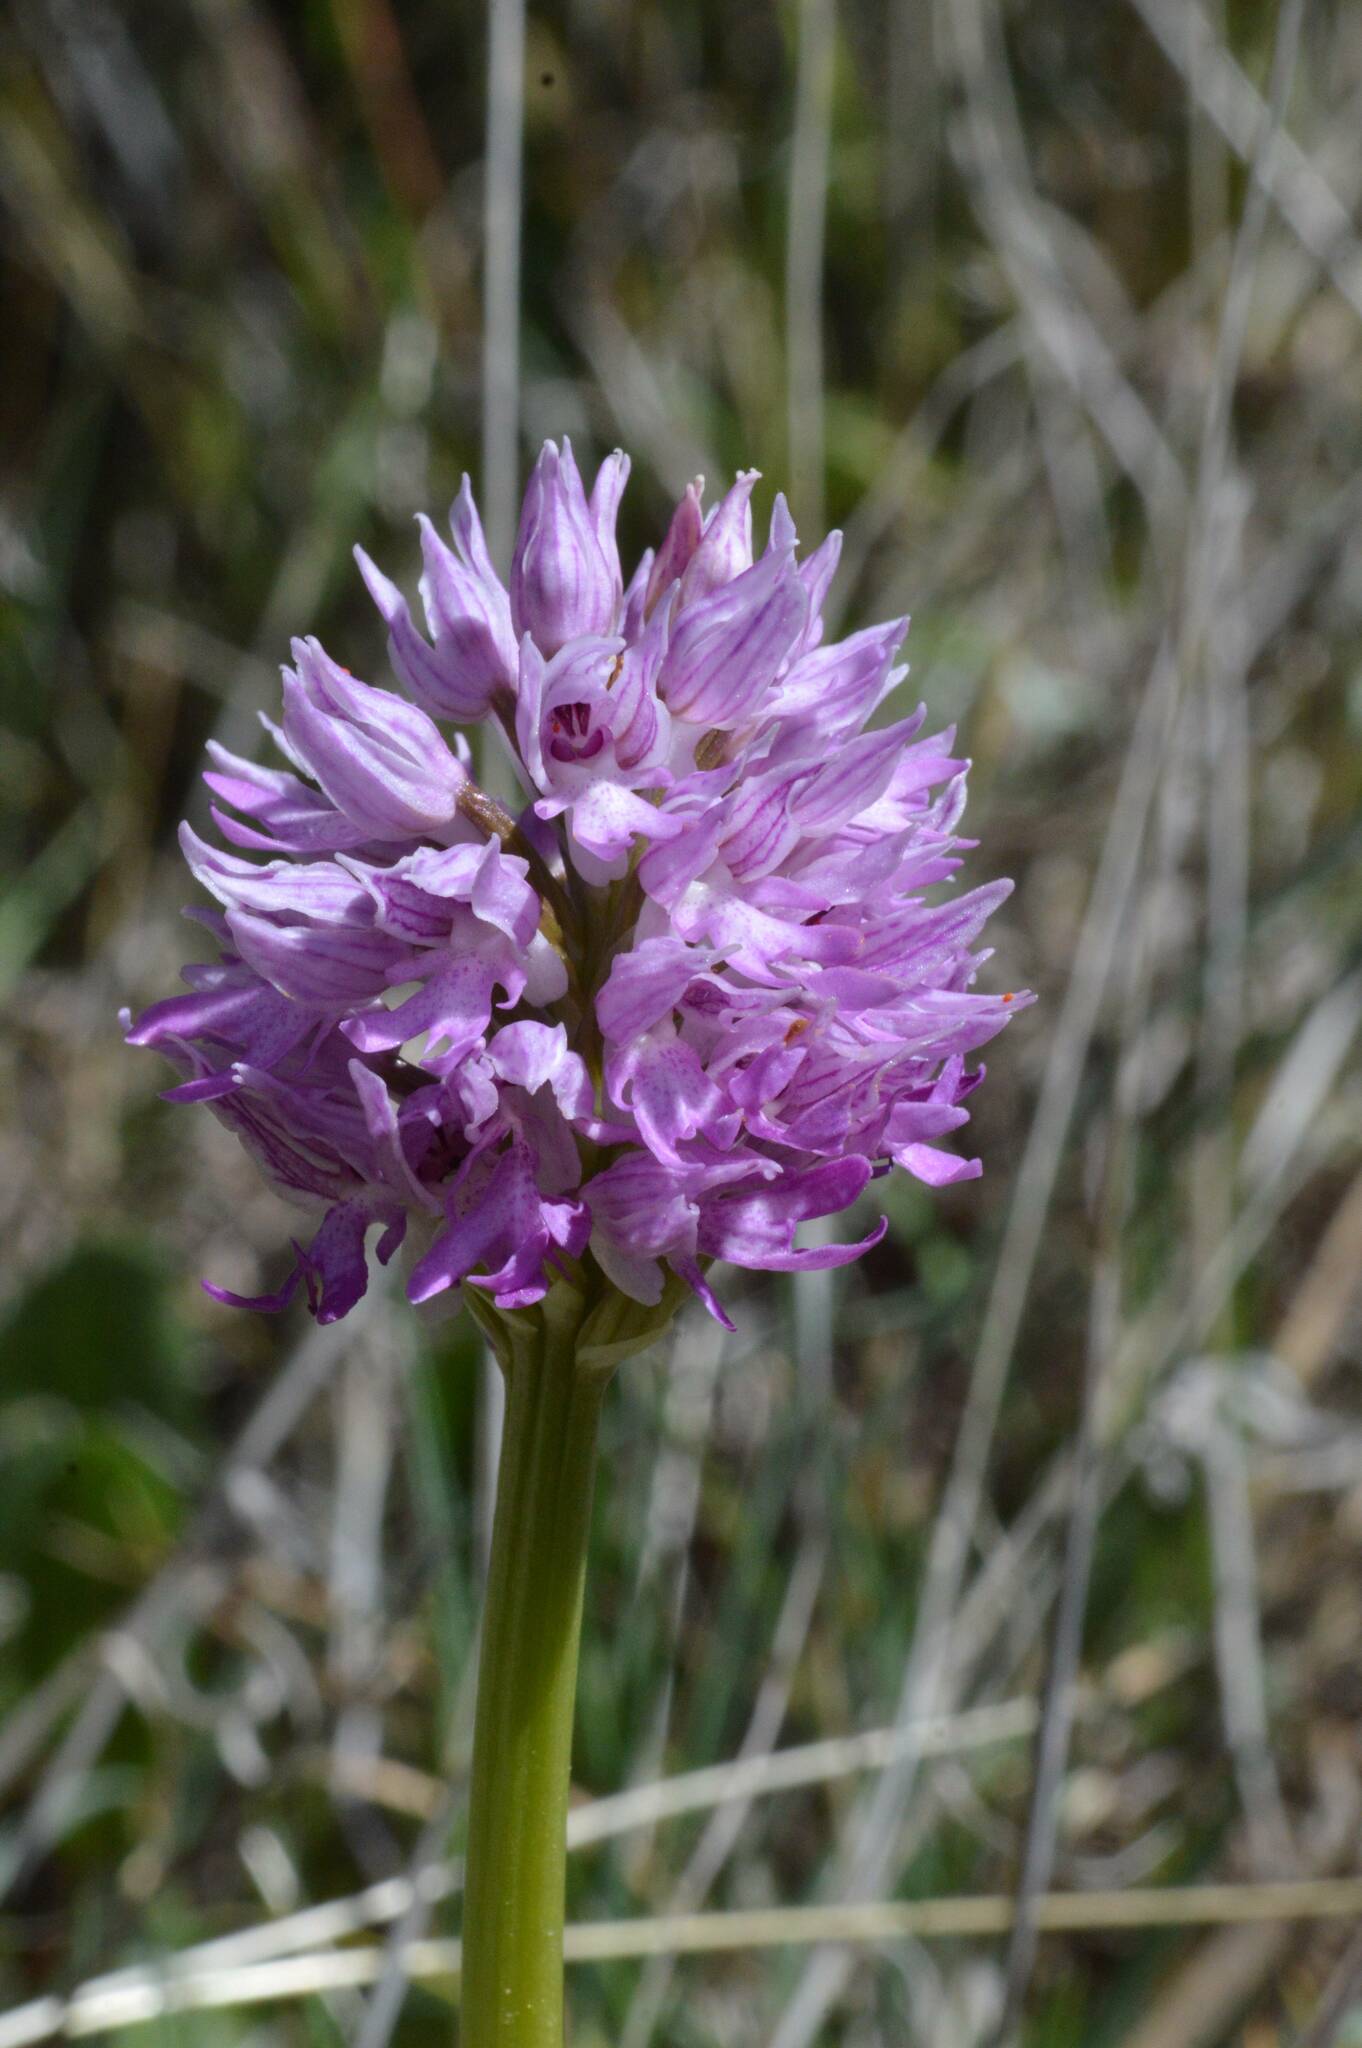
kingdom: Plantae
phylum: Tracheophyta
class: Liliopsida
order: Asparagales
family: Orchidaceae
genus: Orchis
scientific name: Orchis italica
